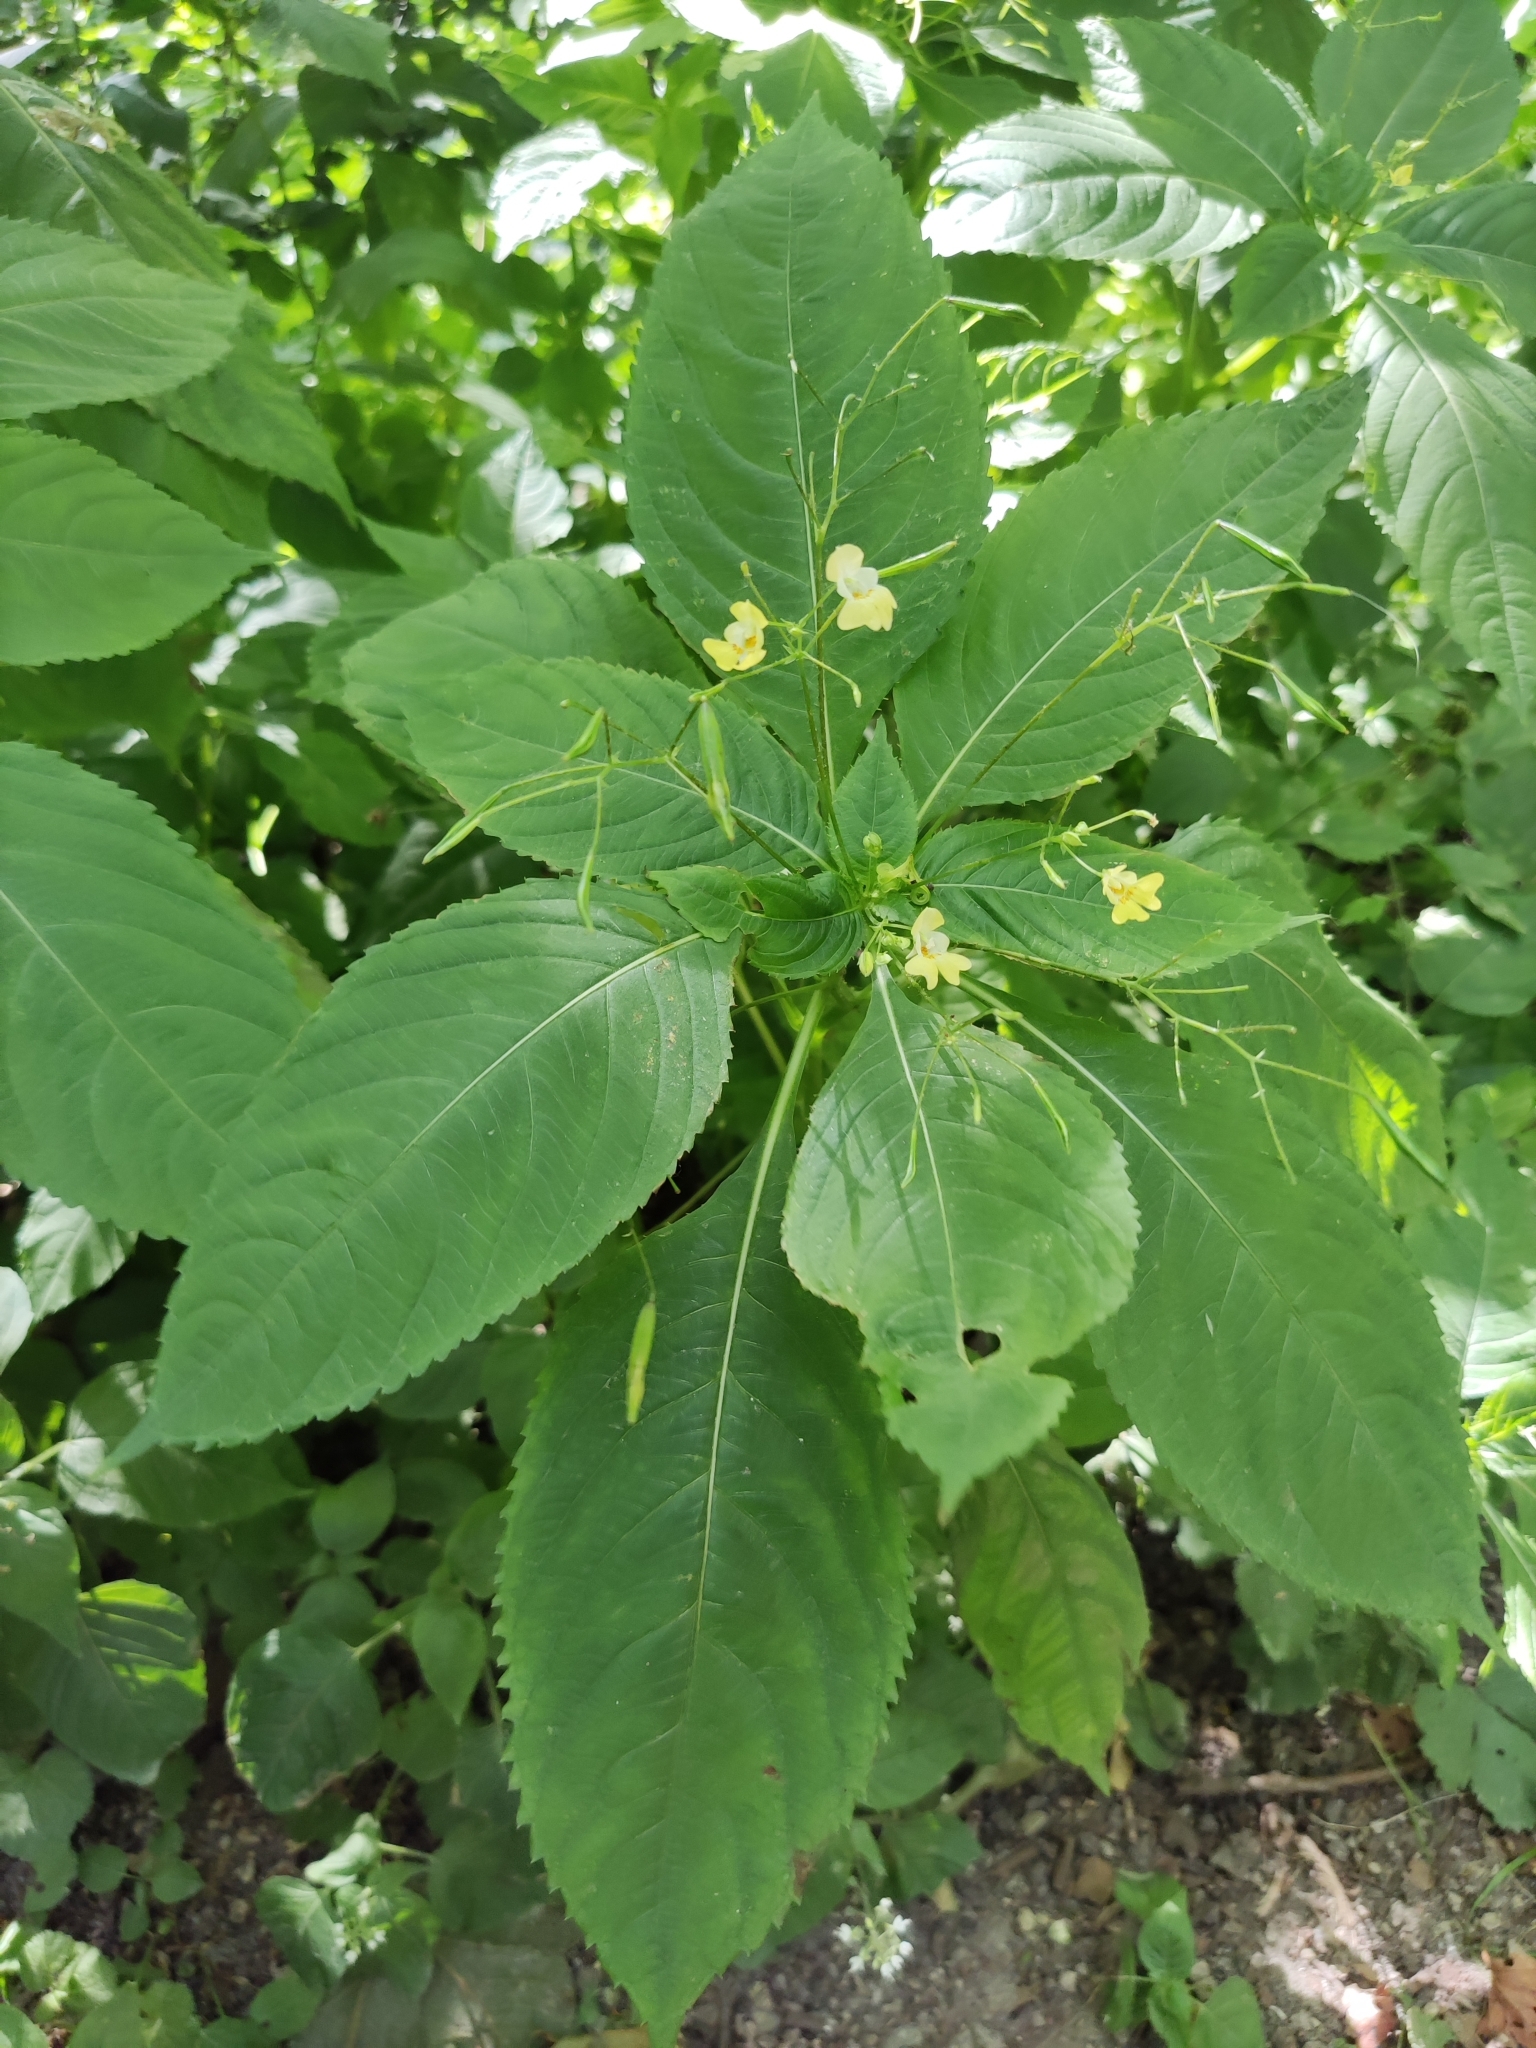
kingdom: Plantae
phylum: Tracheophyta
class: Magnoliopsida
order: Ericales
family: Balsaminaceae
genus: Impatiens
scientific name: Impatiens parviflora
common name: Small balsam
